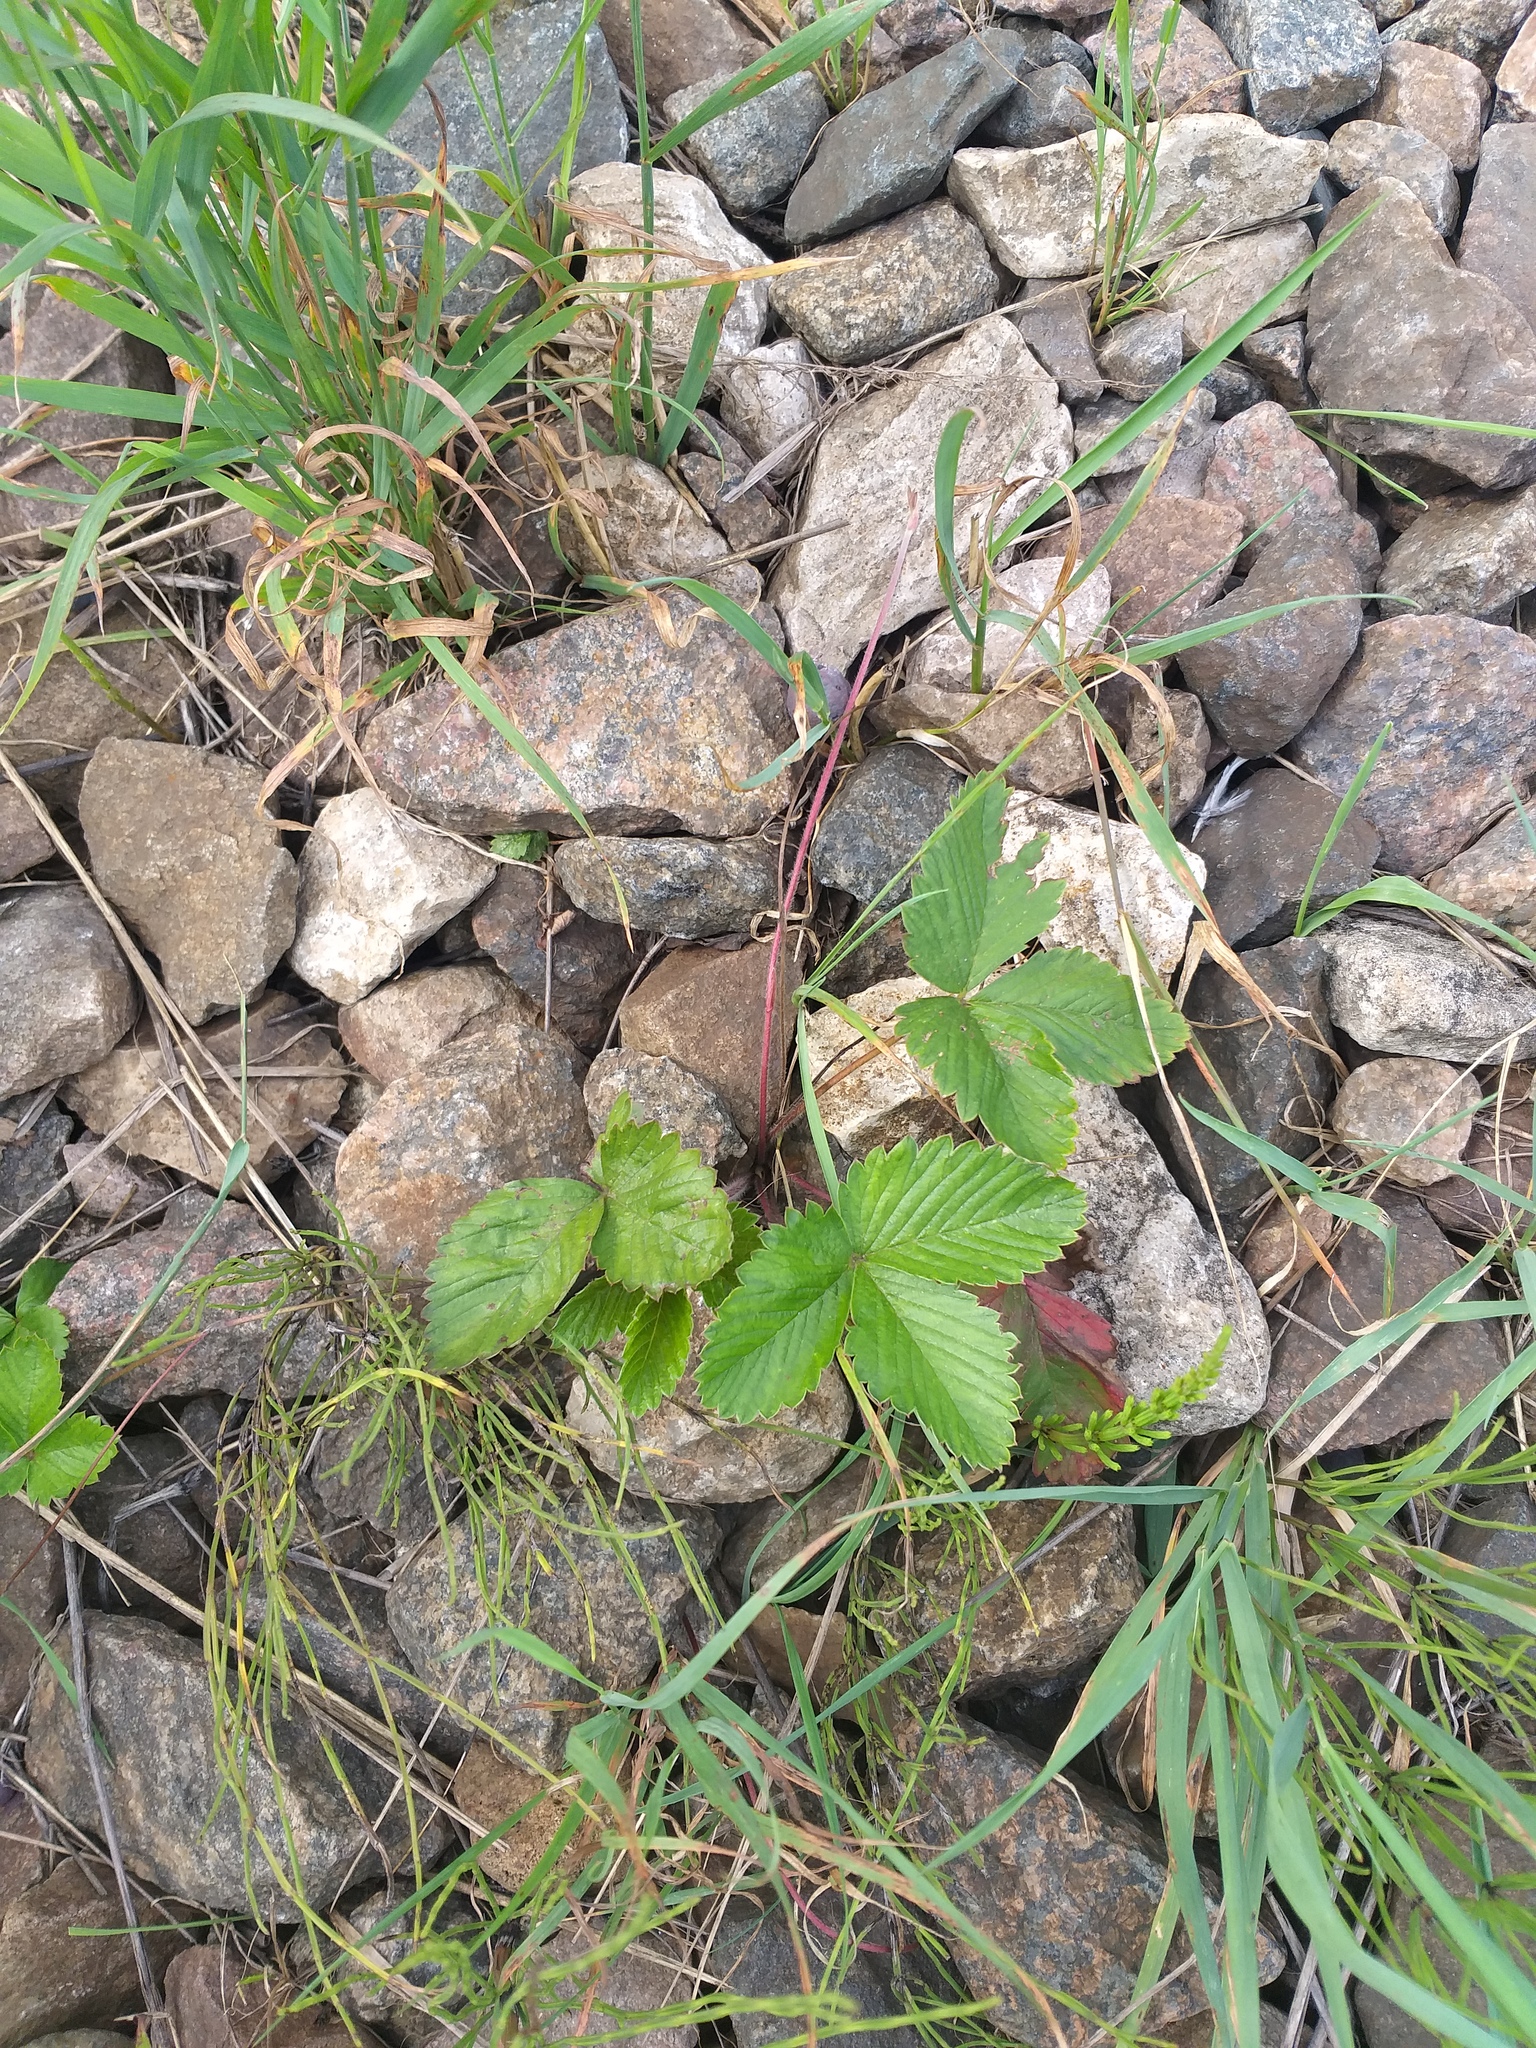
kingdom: Plantae
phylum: Tracheophyta
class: Magnoliopsida
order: Rosales
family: Rosaceae
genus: Fragaria
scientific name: Fragaria vesca
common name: Wild strawberry
